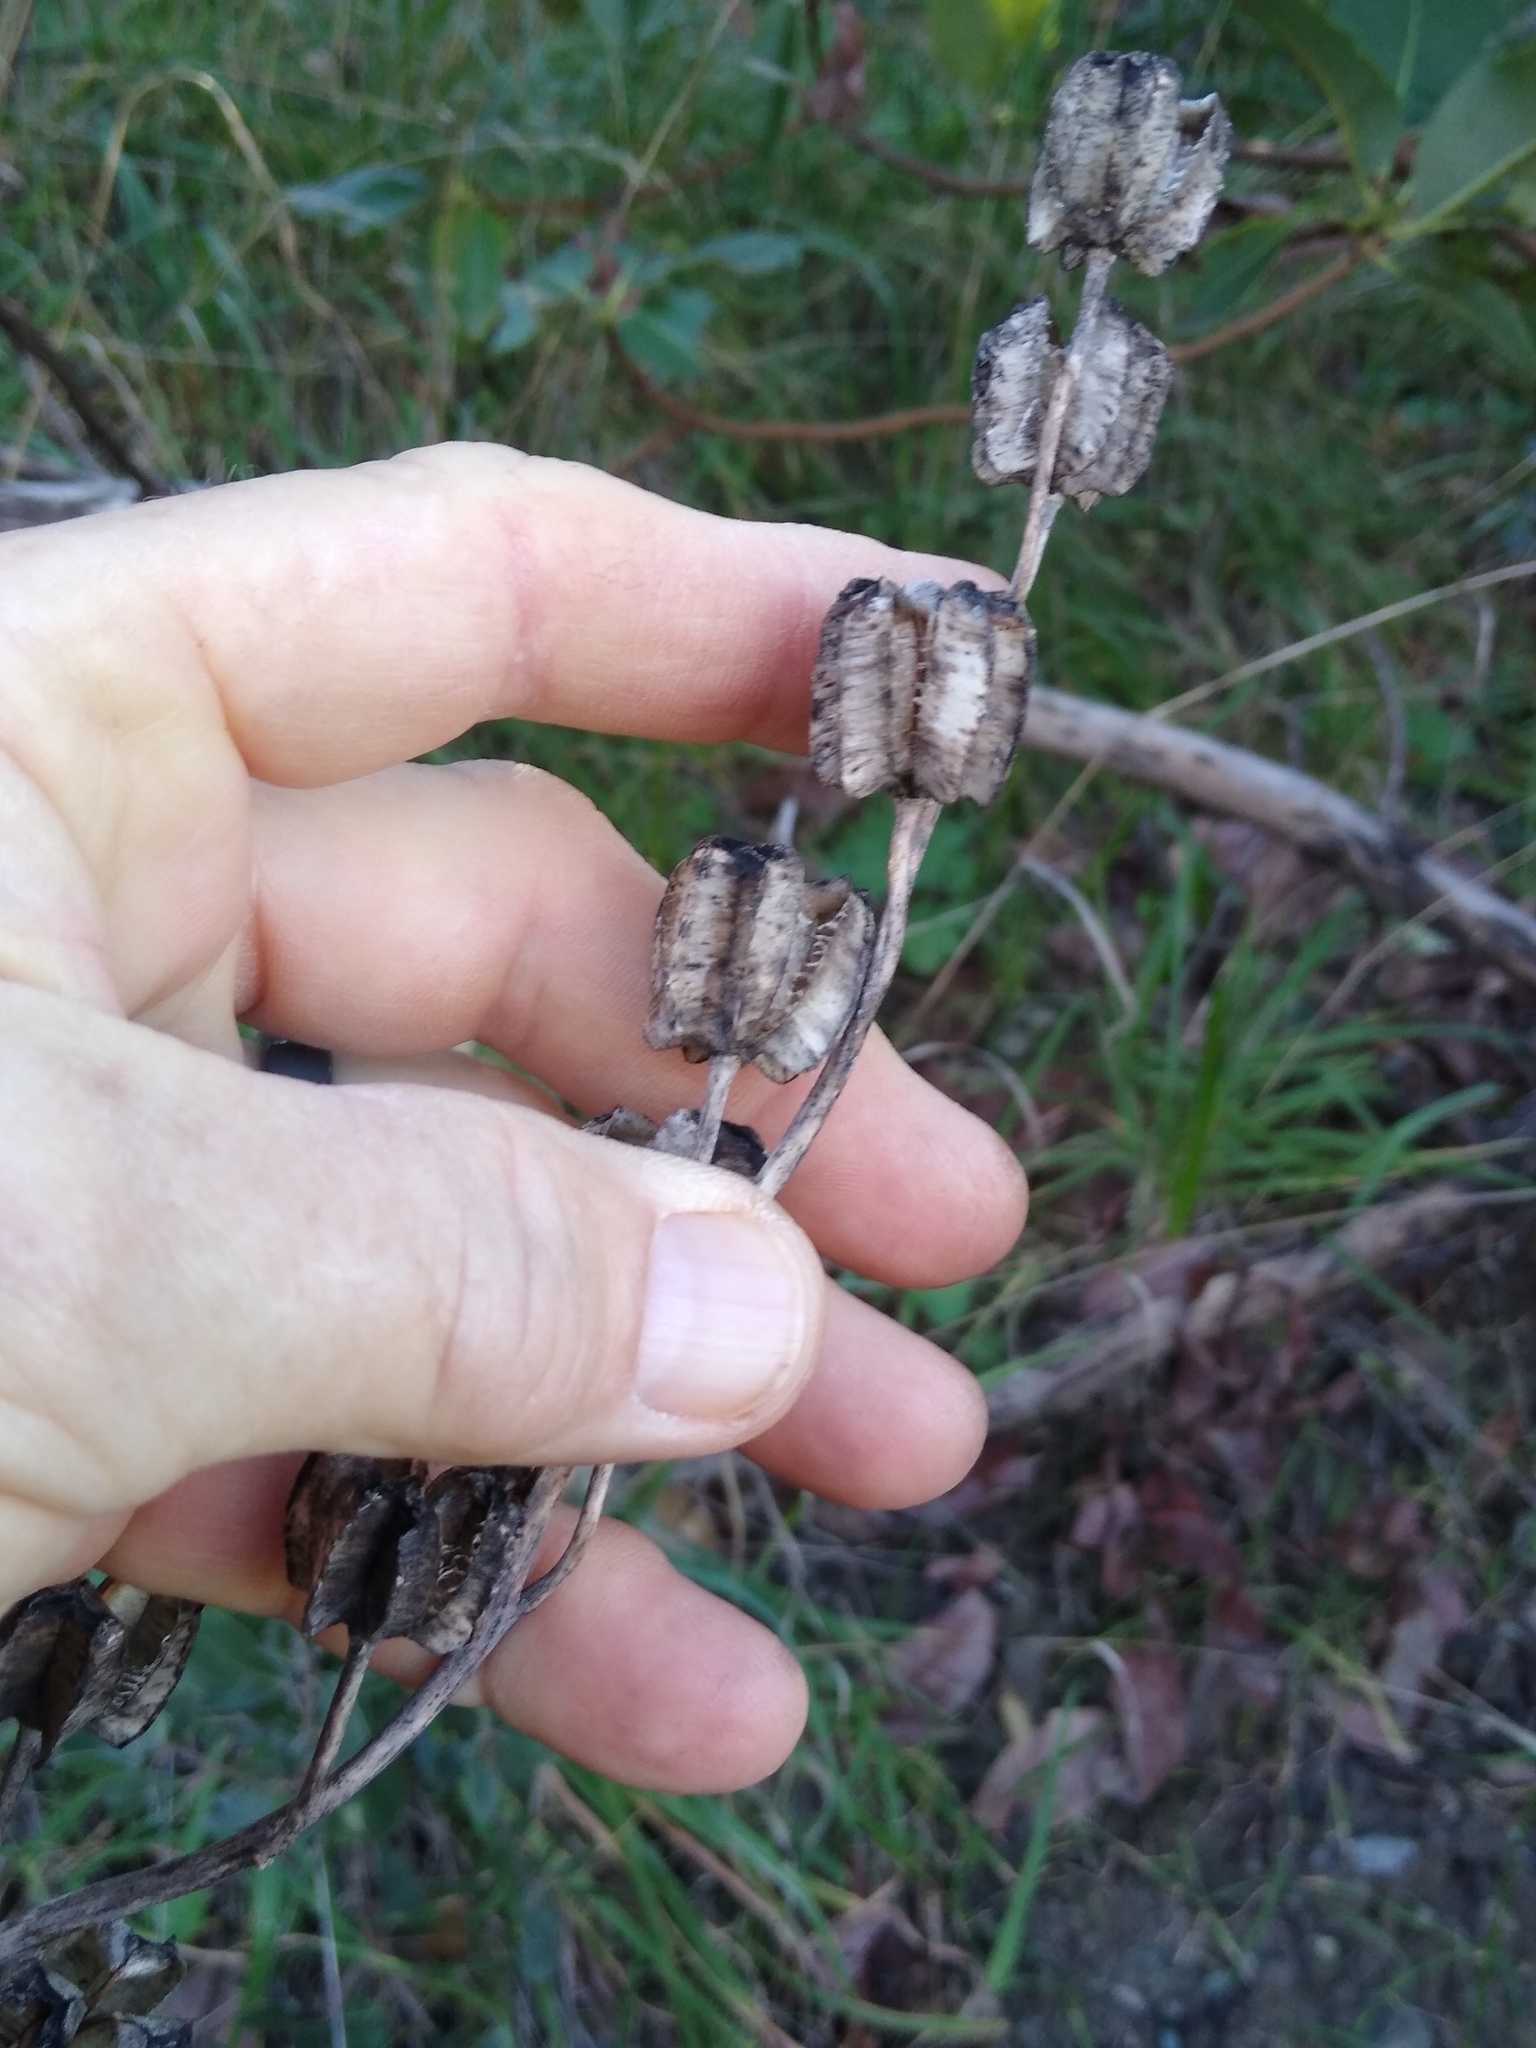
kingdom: Plantae
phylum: Tracheophyta
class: Liliopsida
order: Liliales
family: Liliaceae
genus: Fritillaria
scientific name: Fritillaria affinis
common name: Ojai fritillary
